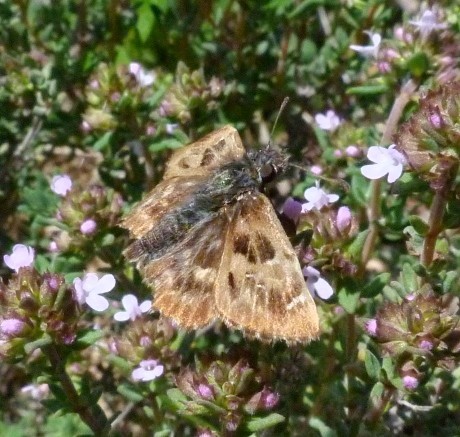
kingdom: Animalia
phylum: Arthropoda
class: Insecta
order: Lepidoptera
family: Hesperiidae
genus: Carcharodus
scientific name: Carcharodus alceae
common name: Mallow skipper
